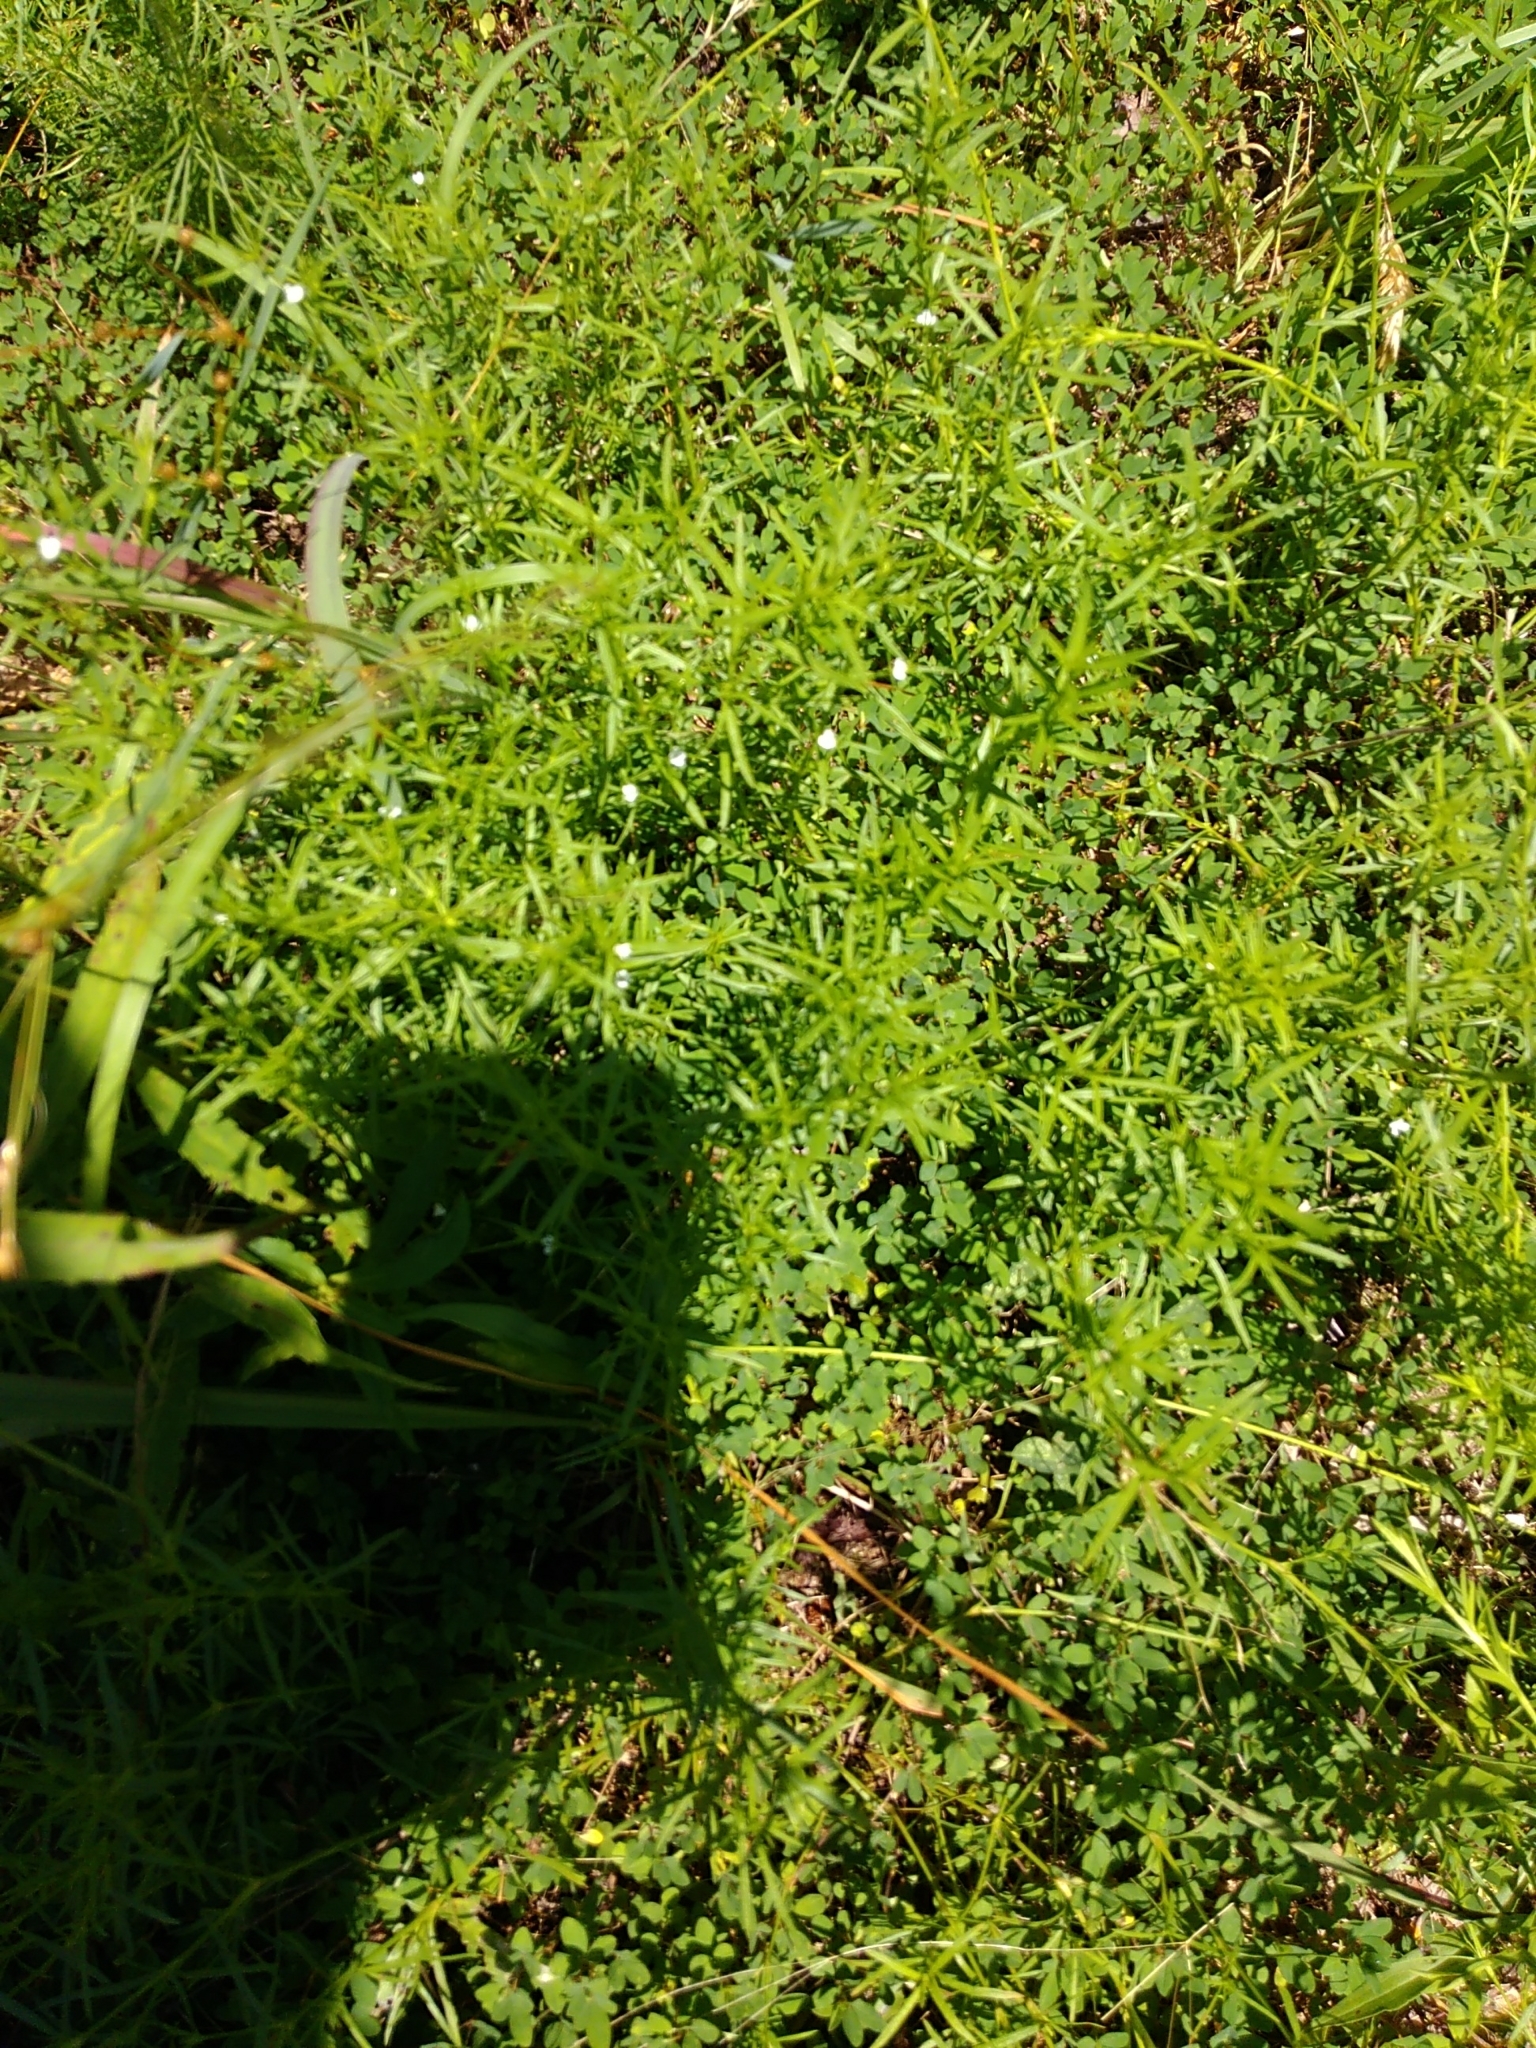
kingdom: Plantae
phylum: Tracheophyta
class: Magnoliopsida
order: Lamiales
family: Tetrachondraceae
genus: Polypremum
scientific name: Polypremum procumbens
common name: Juniper-leaf
